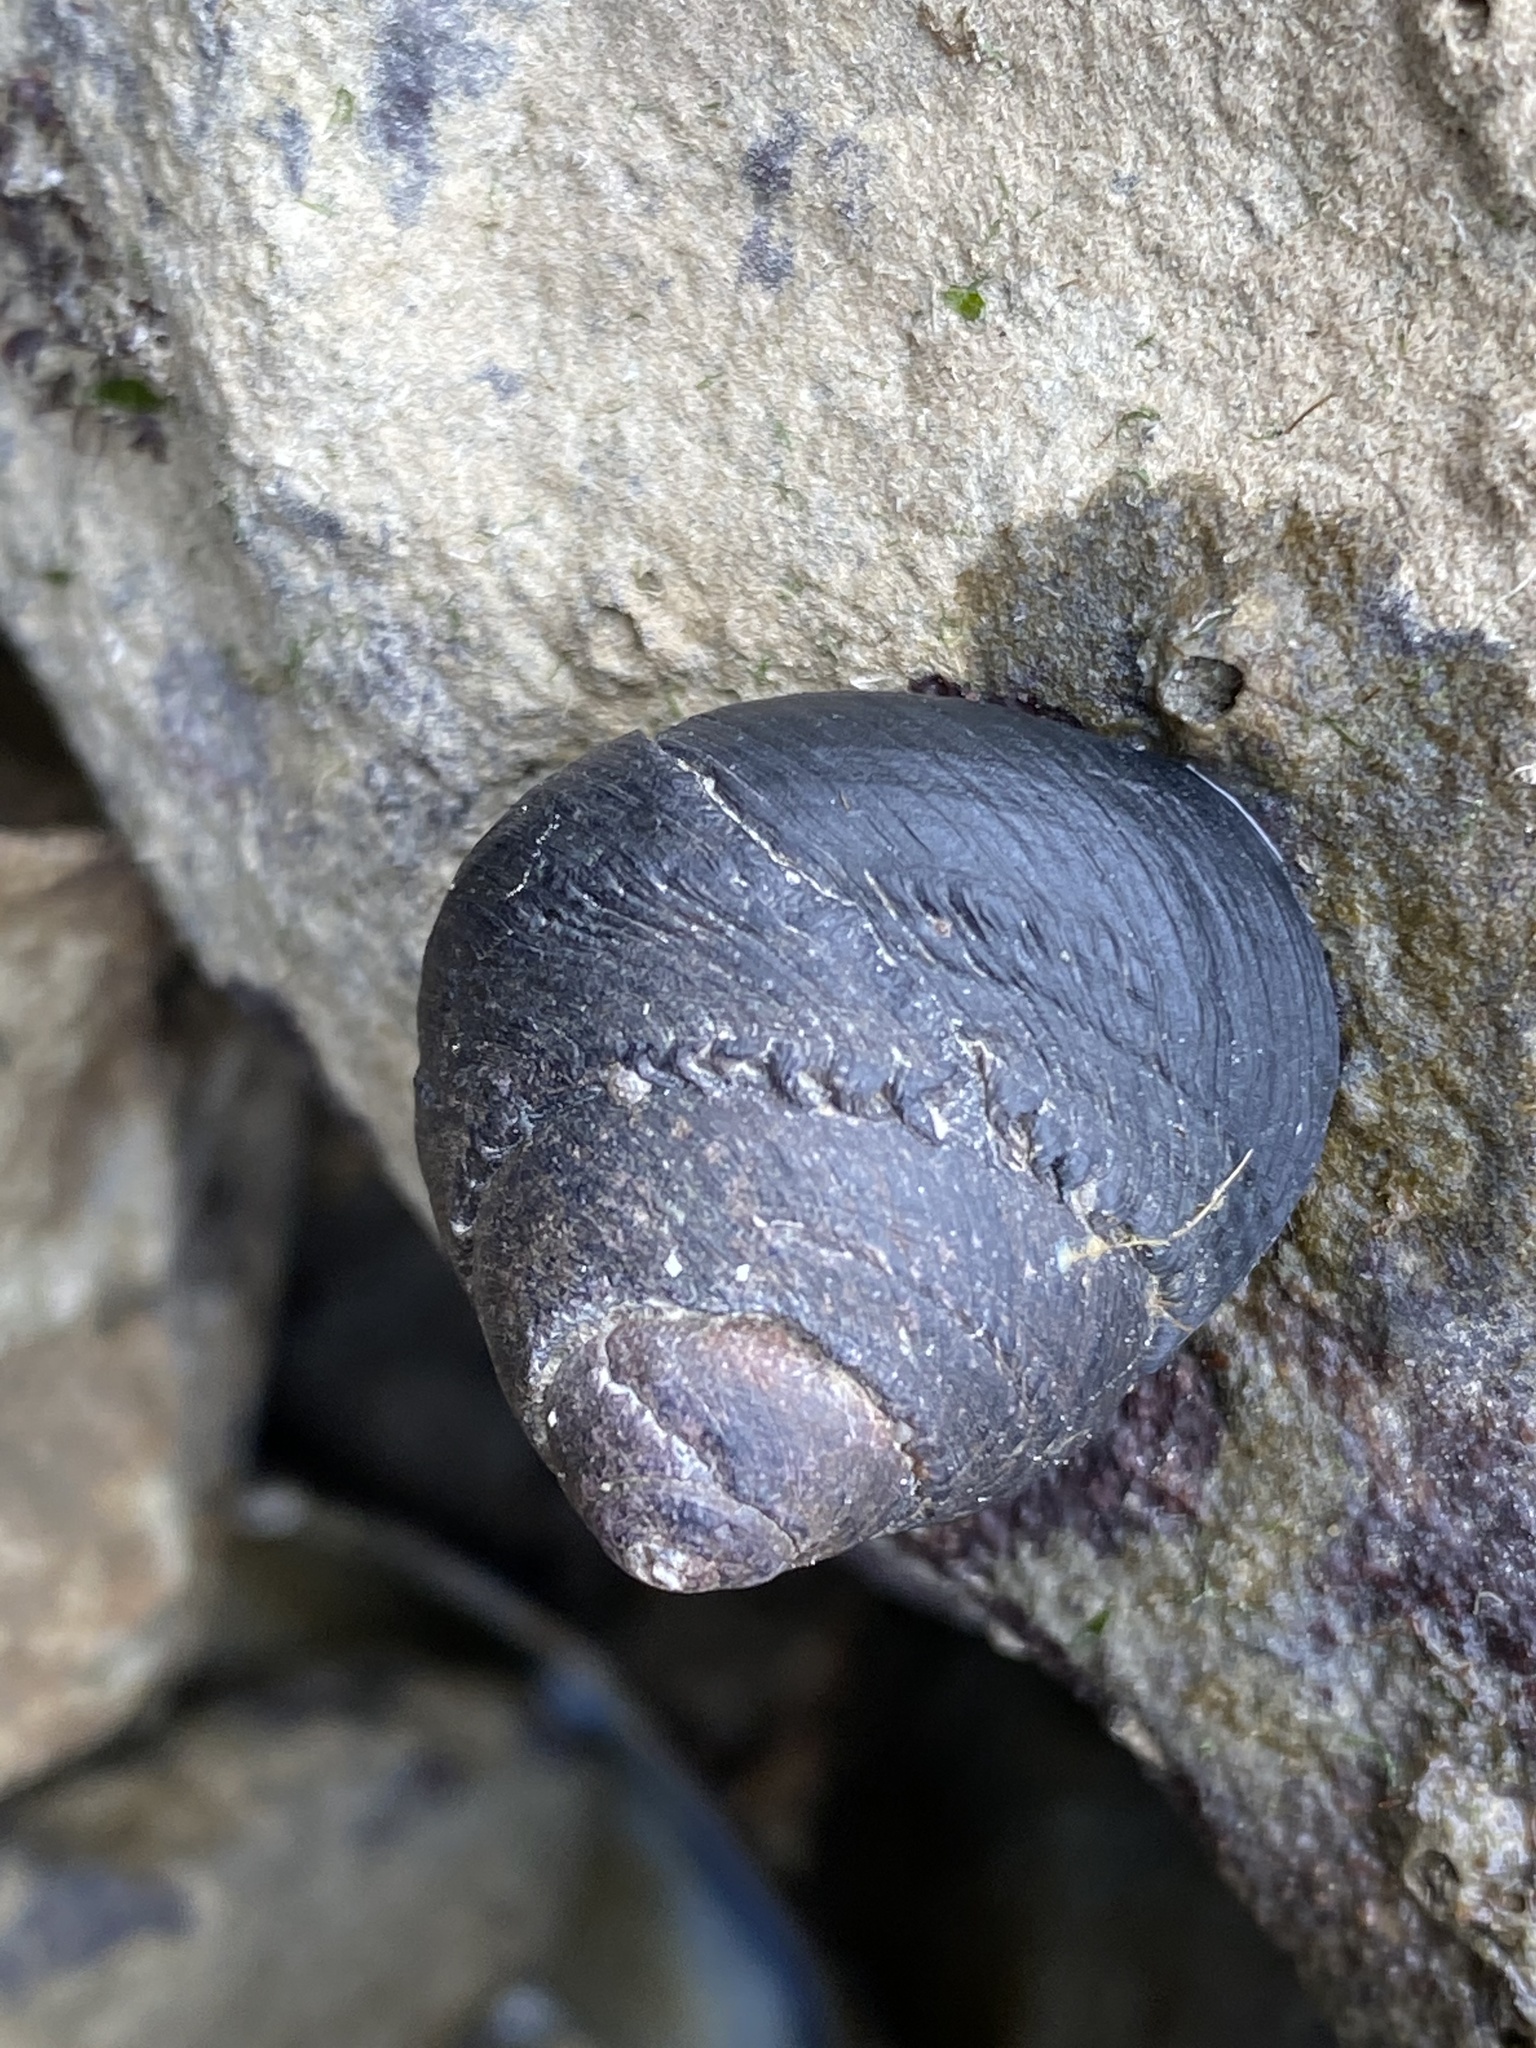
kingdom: Animalia
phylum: Mollusca
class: Gastropoda
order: Trochida
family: Tegulidae
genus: Tegula
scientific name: Tegula funebralis
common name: Black tegula
